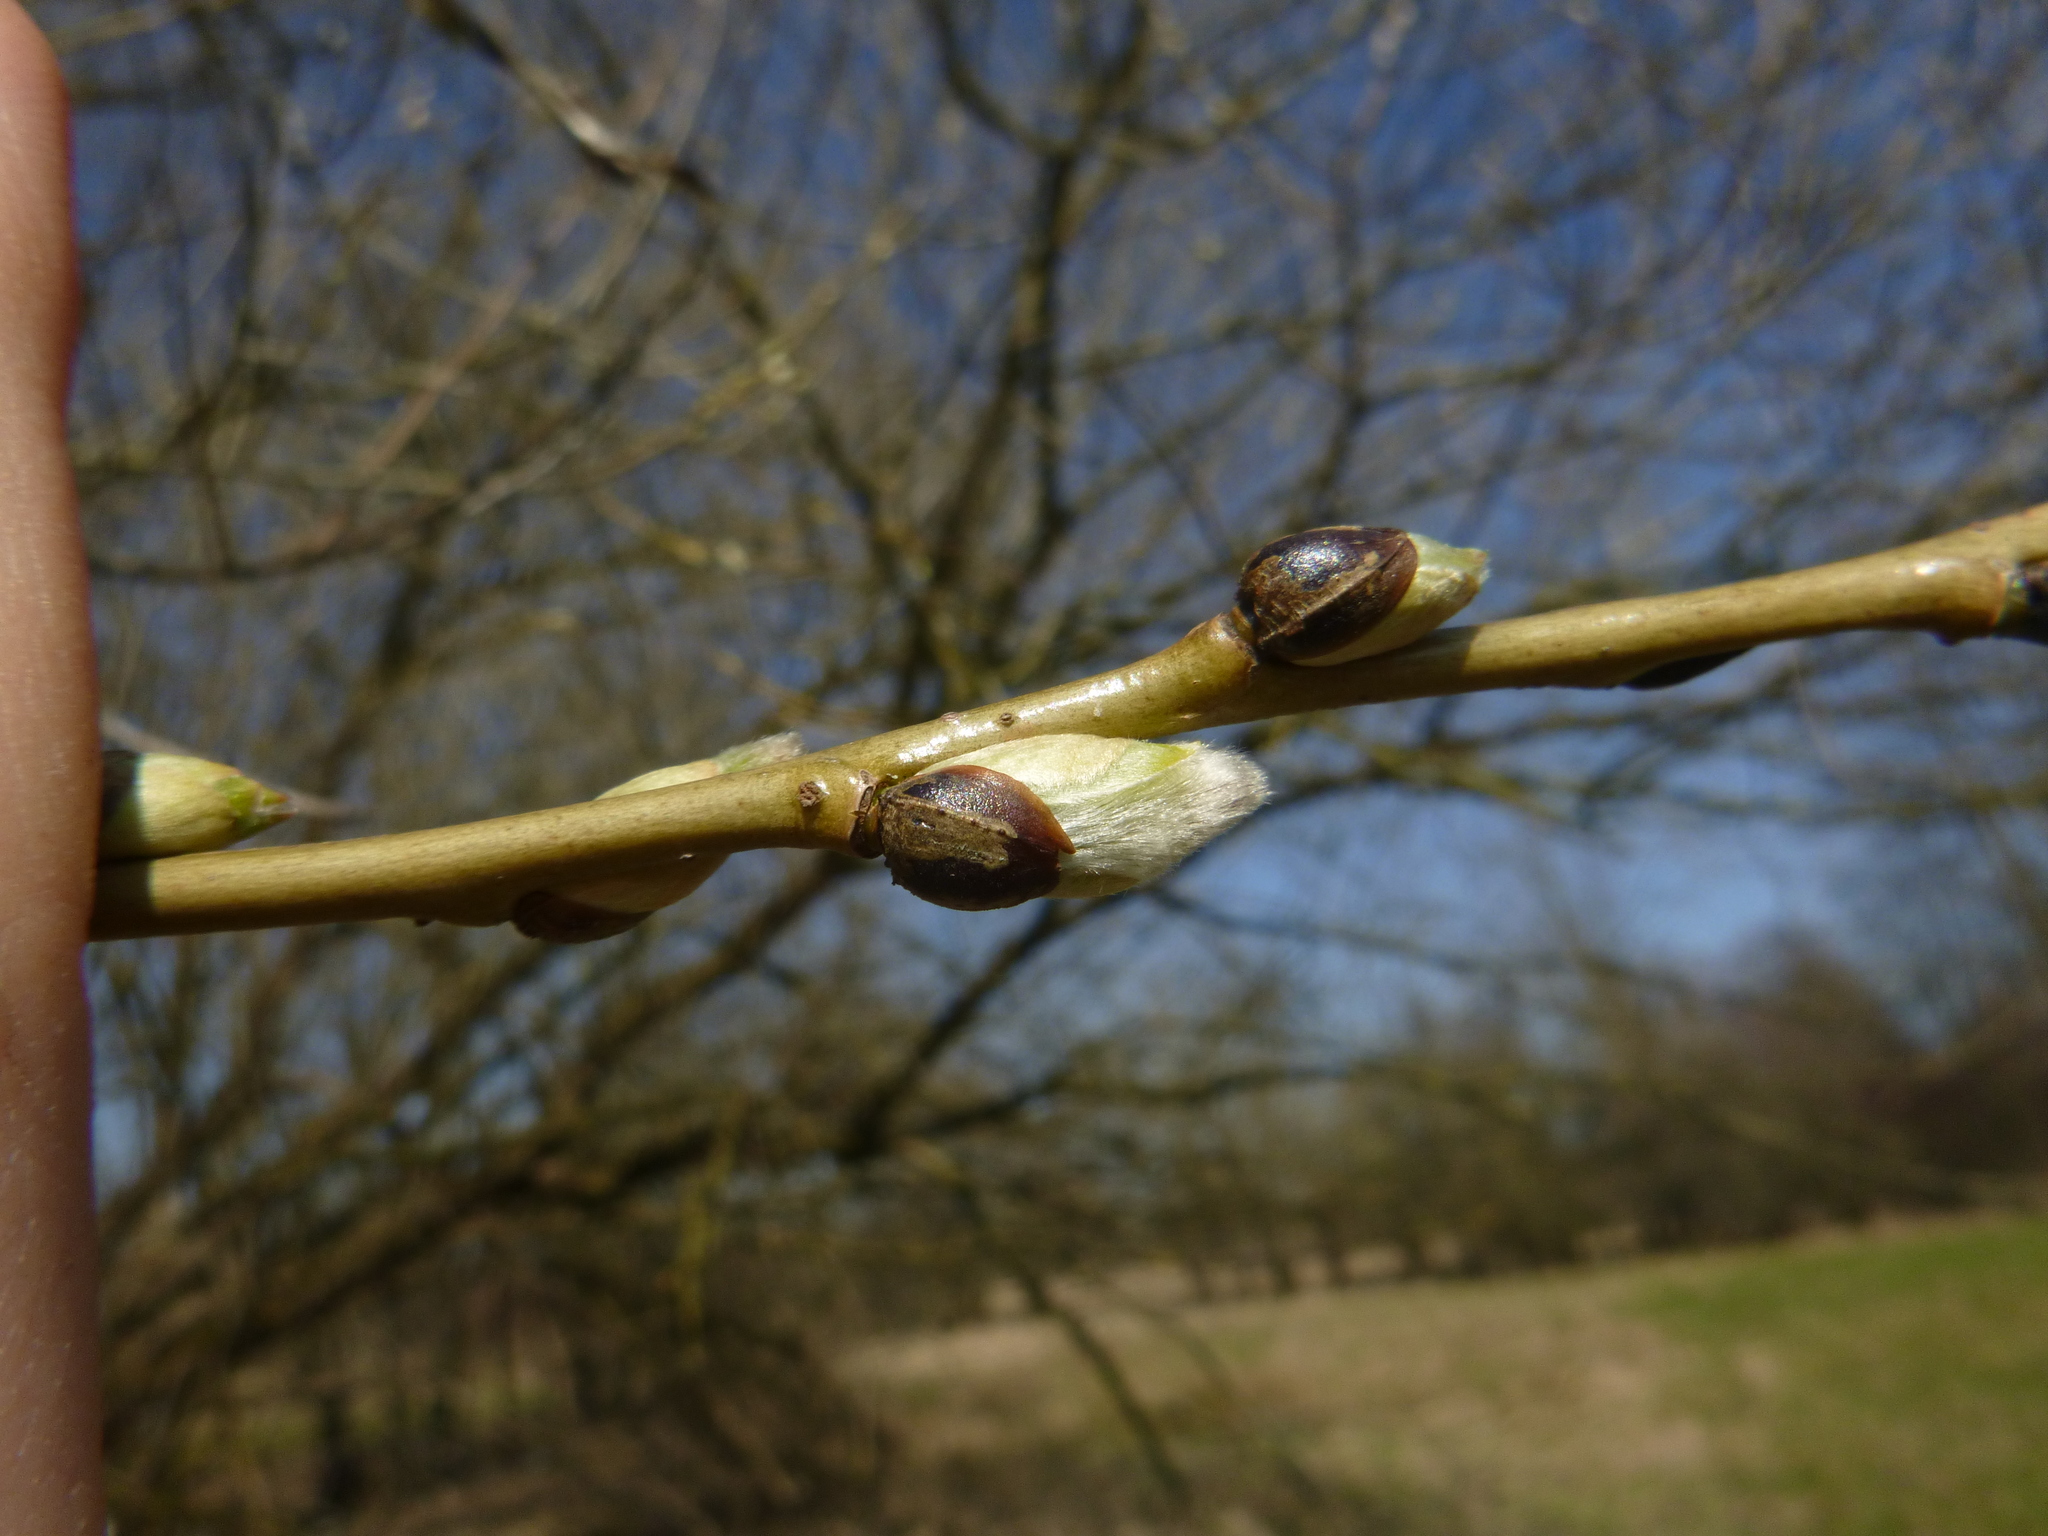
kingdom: Plantae
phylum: Tracheophyta
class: Magnoliopsida
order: Malpighiales
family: Salicaceae
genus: Salix
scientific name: Salix fragilis
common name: Crack willow
